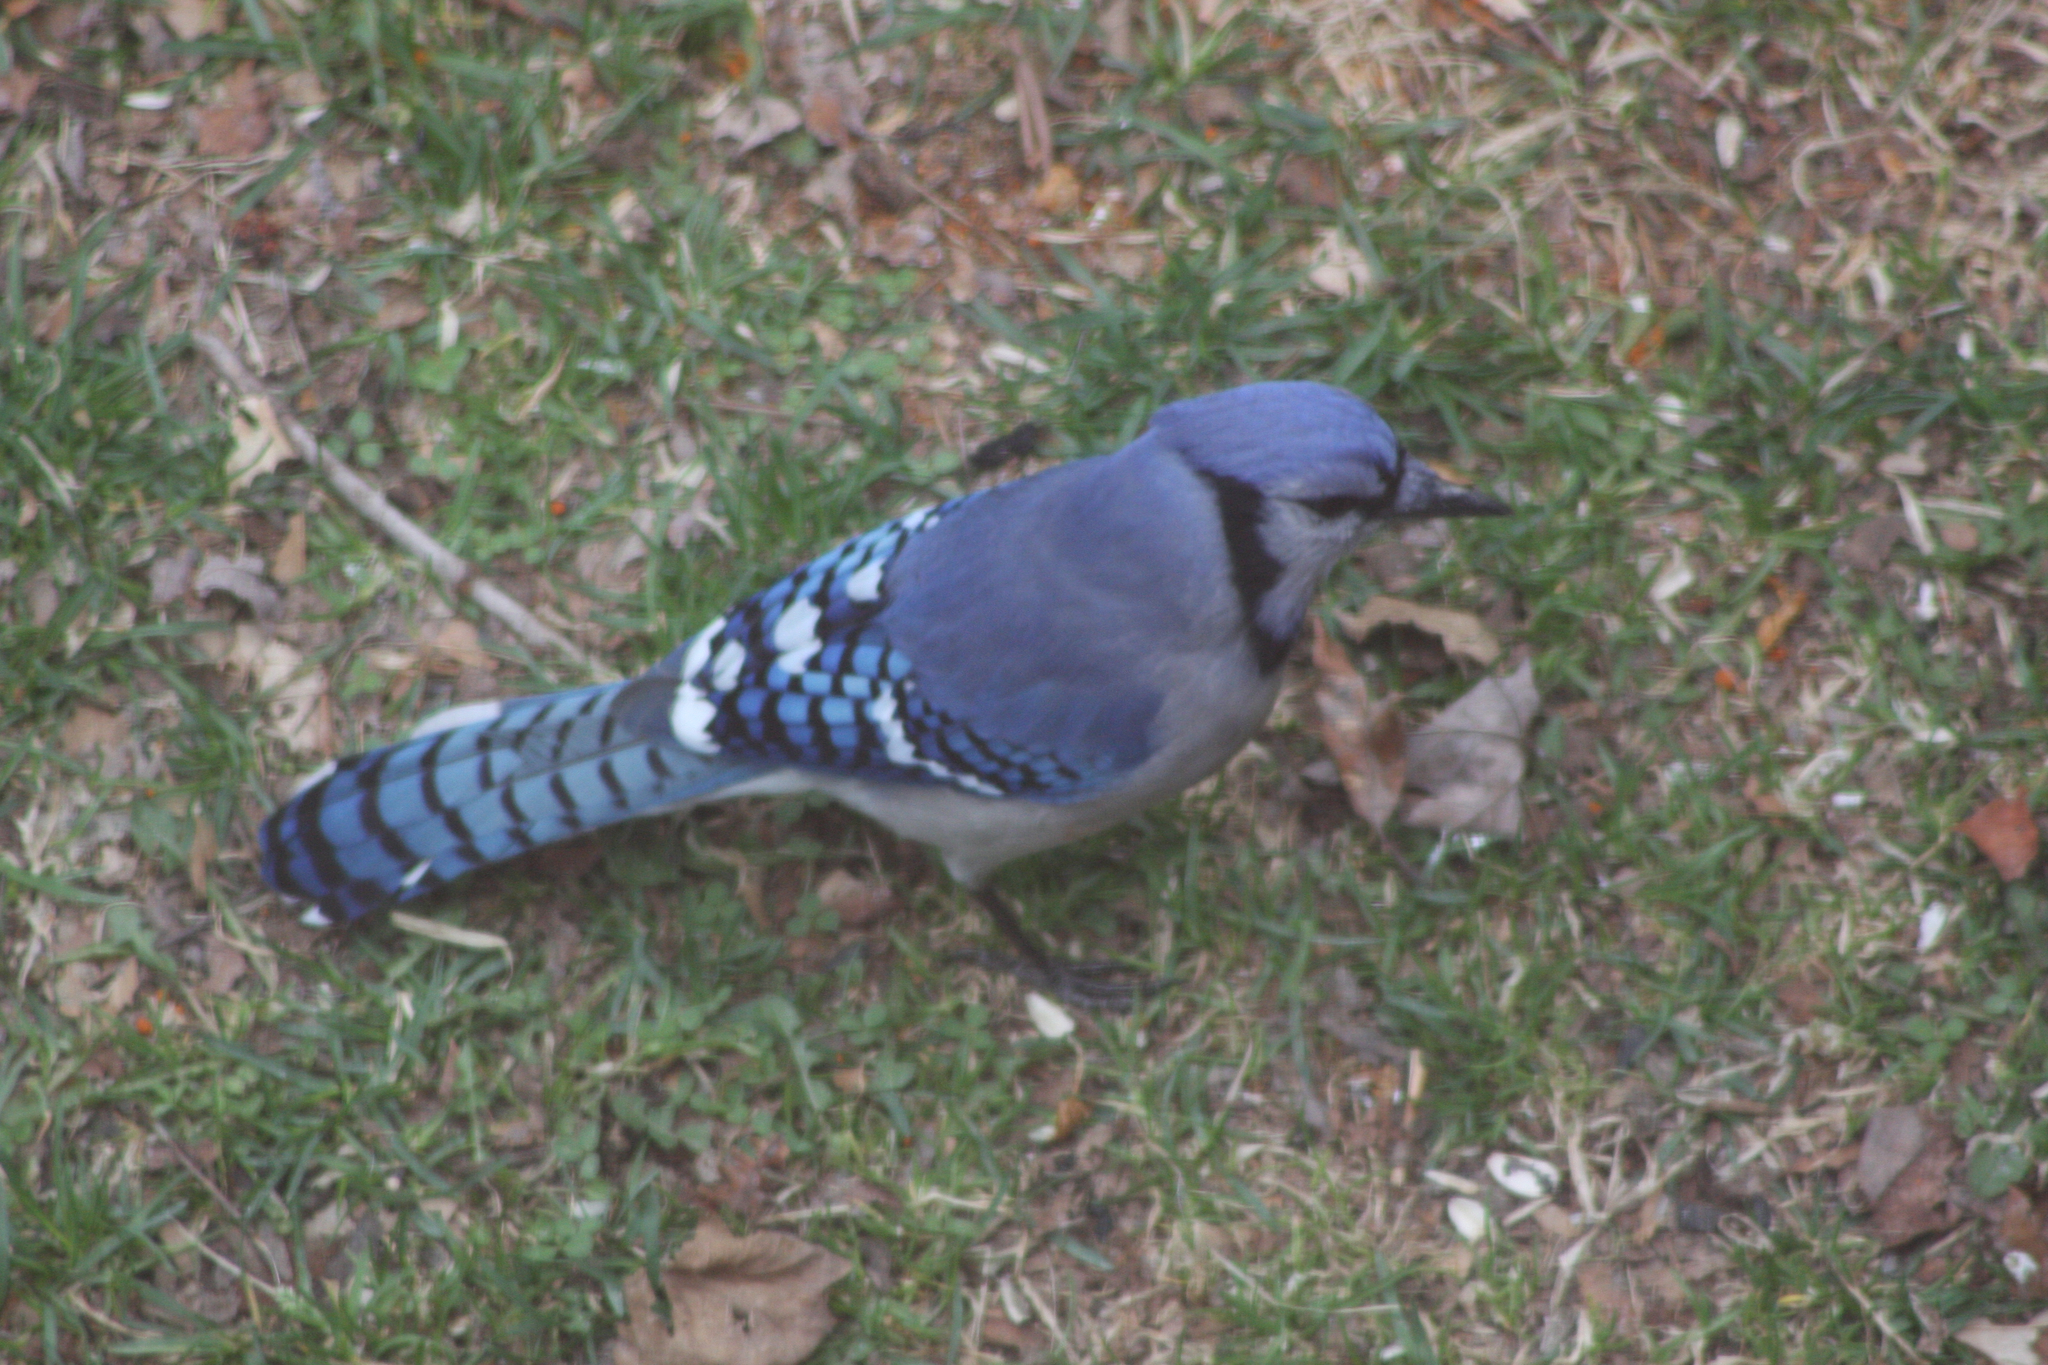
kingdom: Animalia
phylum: Chordata
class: Aves
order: Passeriformes
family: Corvidae
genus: Cyanocitta
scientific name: Cyanocitta cristata
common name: Blue jay
